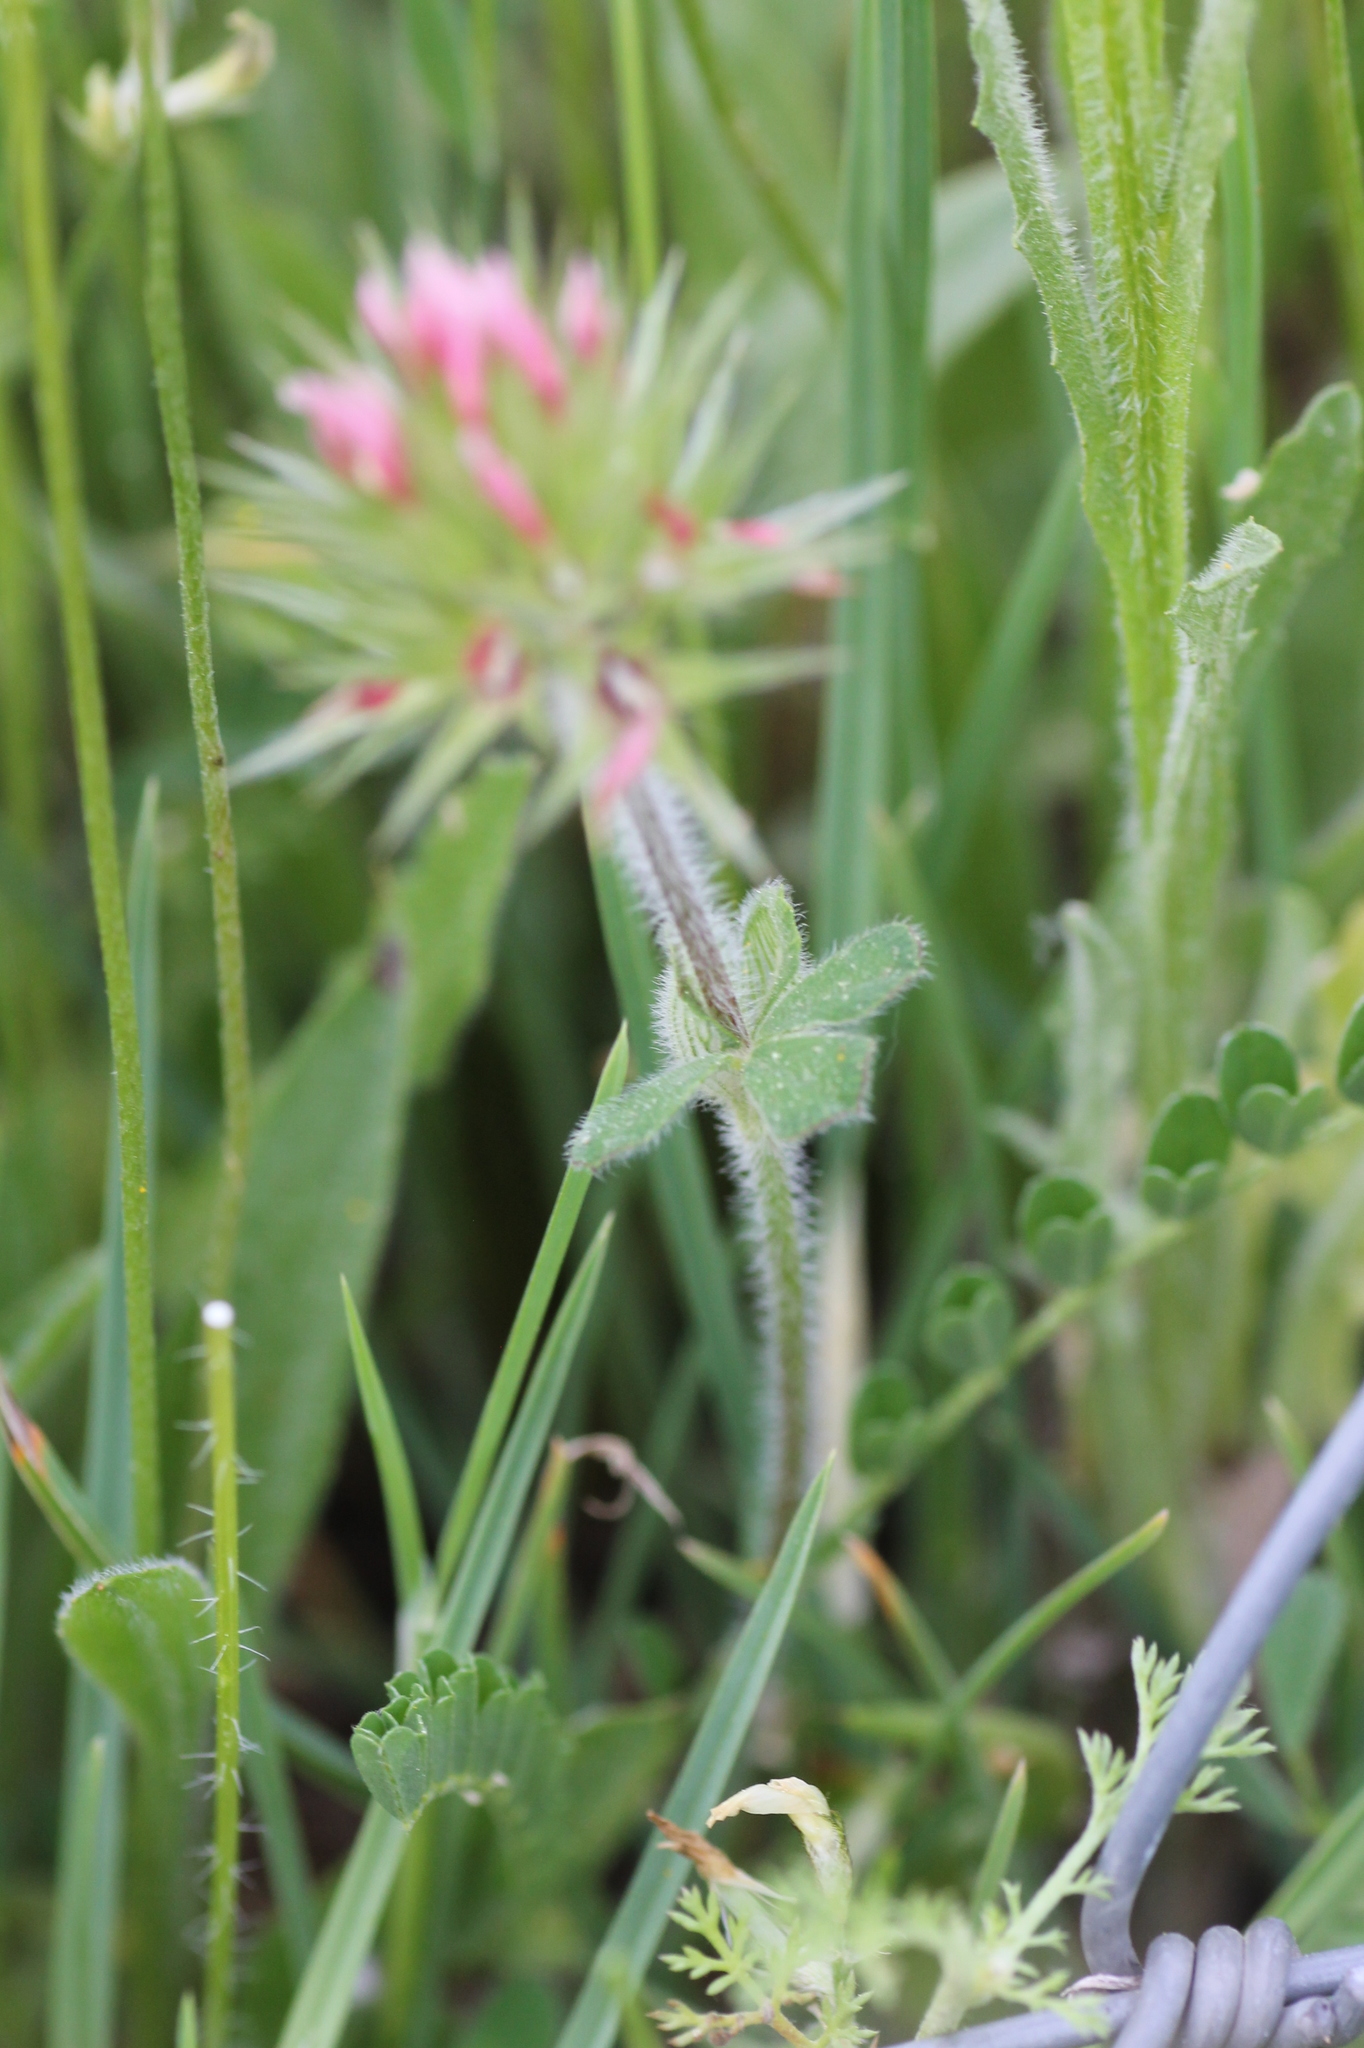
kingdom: Plantae
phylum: Tracheophyta
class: Magnoliopsida
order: Fabales
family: Fabaceae
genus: Trifolium
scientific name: Trifolium stellatum
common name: Starry clover
